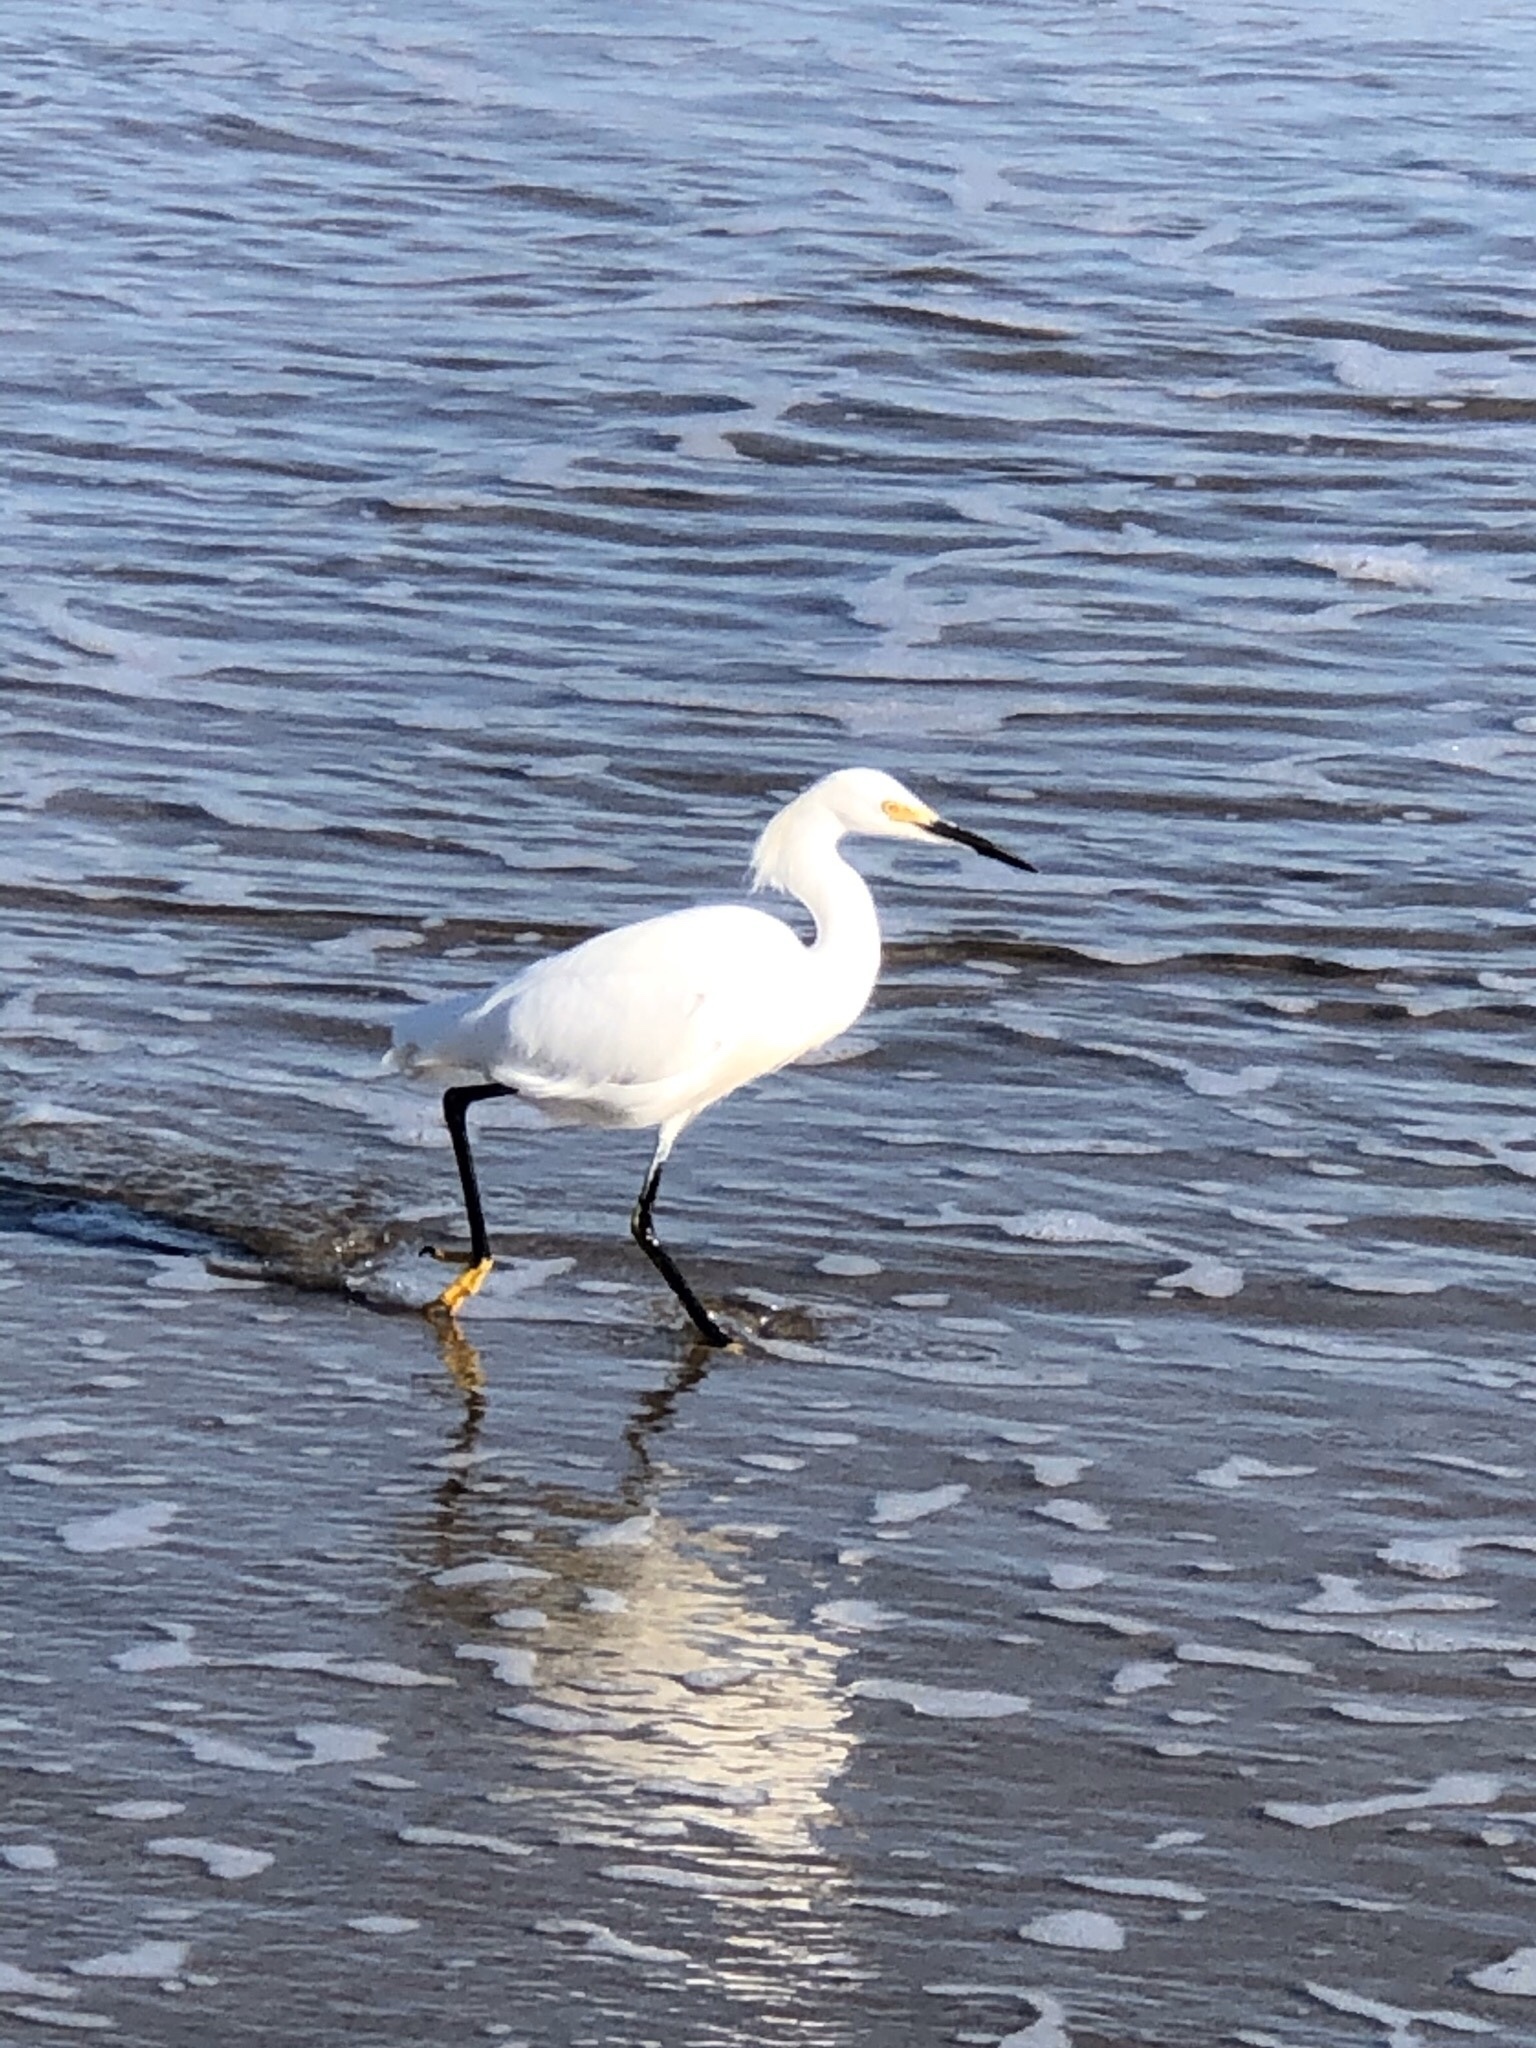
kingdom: Animalia
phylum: Chordata
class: Aves
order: Pelecaniformes
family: Ardeidae
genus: Egretta
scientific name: Egretta thula
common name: Snowy egret
